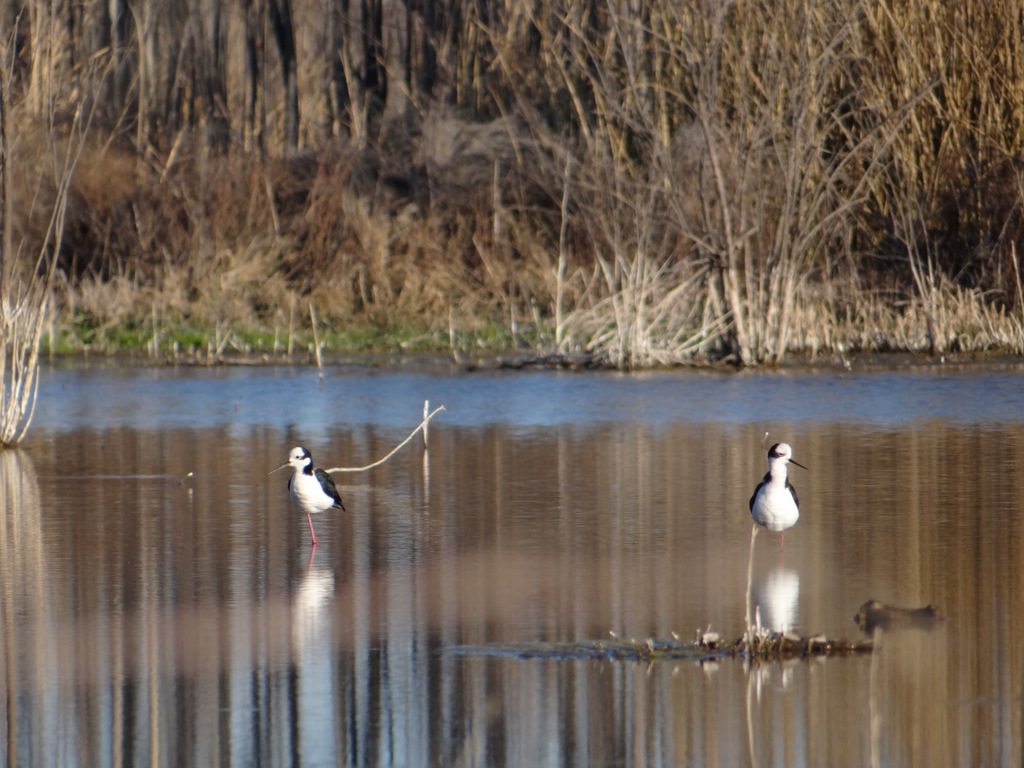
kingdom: Animalia
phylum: Chordata
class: Aves
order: Charadriiformes
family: Recurvirostridae
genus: Himantopus
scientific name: Himantopus mexicanus
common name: Black-necked stilt
